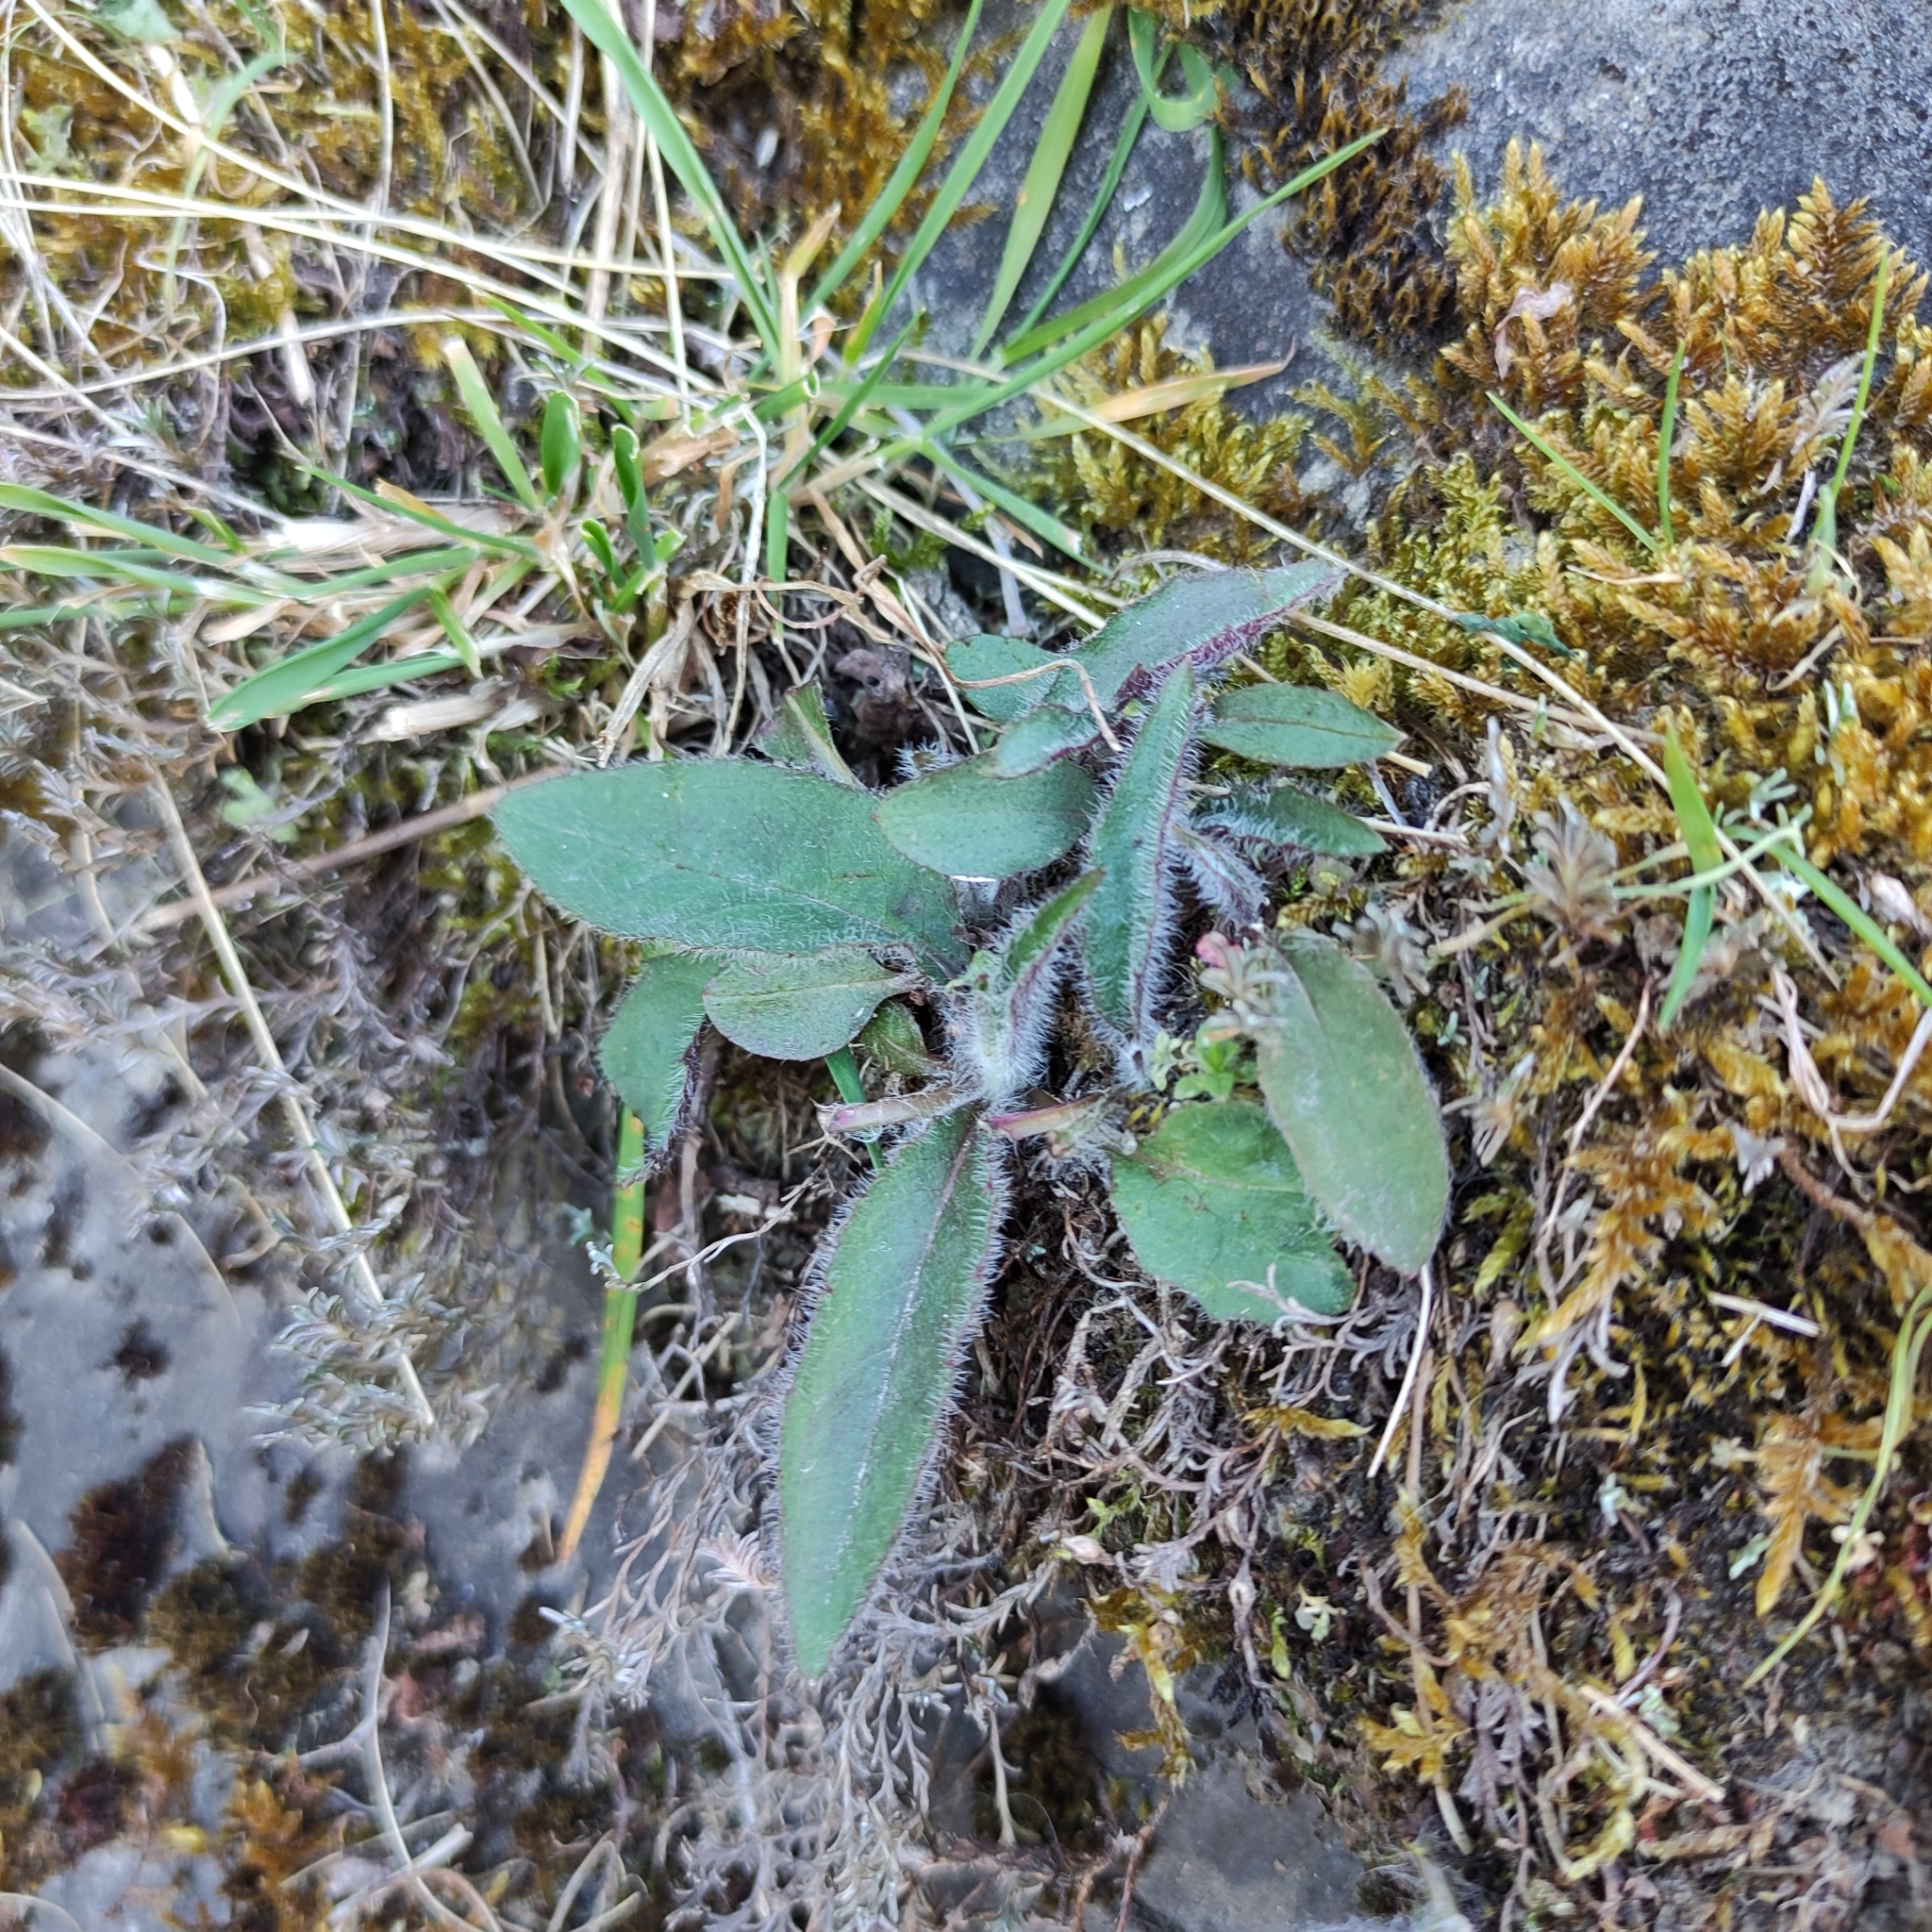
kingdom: Plantae
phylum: Tracheophyta
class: Magnoliopsida
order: Asterales
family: Asteraceae
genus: Hieracium
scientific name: Hieracium lepidulum
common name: Irregular-toothed hawkweed
